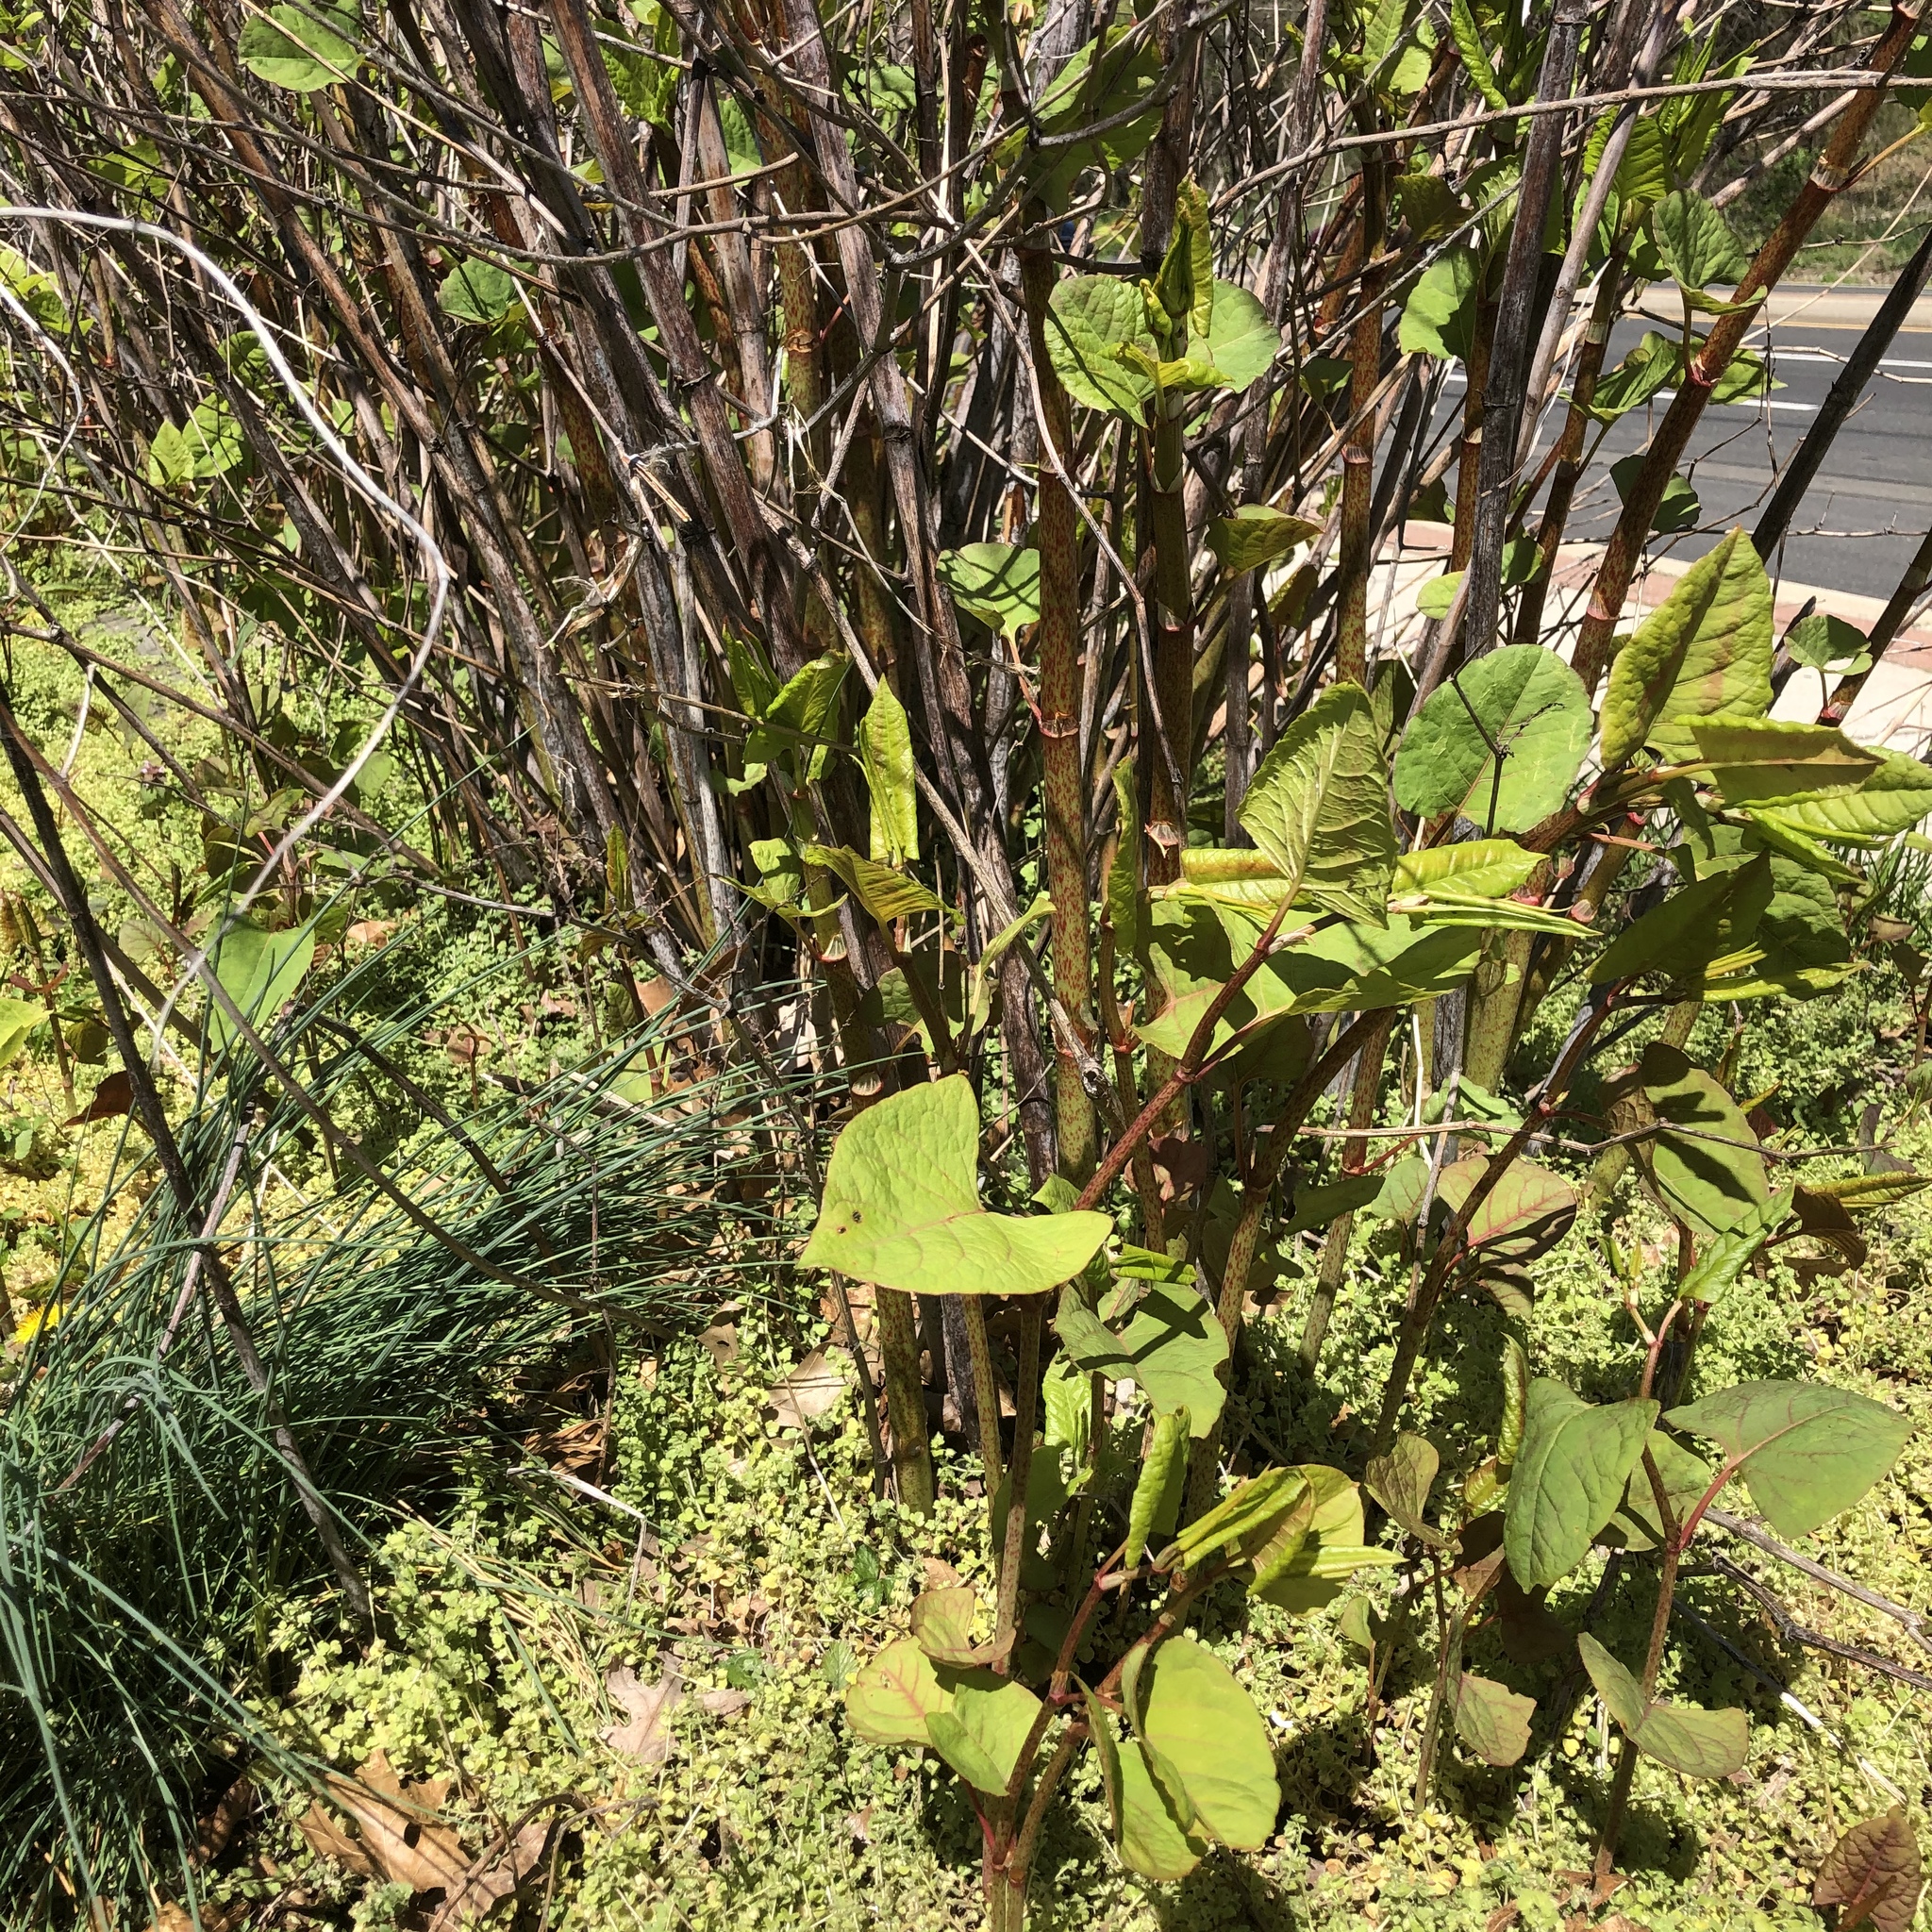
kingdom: Plantae
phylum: Tracheophyta
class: Magnoliopsida
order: Caryophyllales
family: Polygonaceae
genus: Reynoutria
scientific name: Reynoutria japonica
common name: Japanese knotweed
